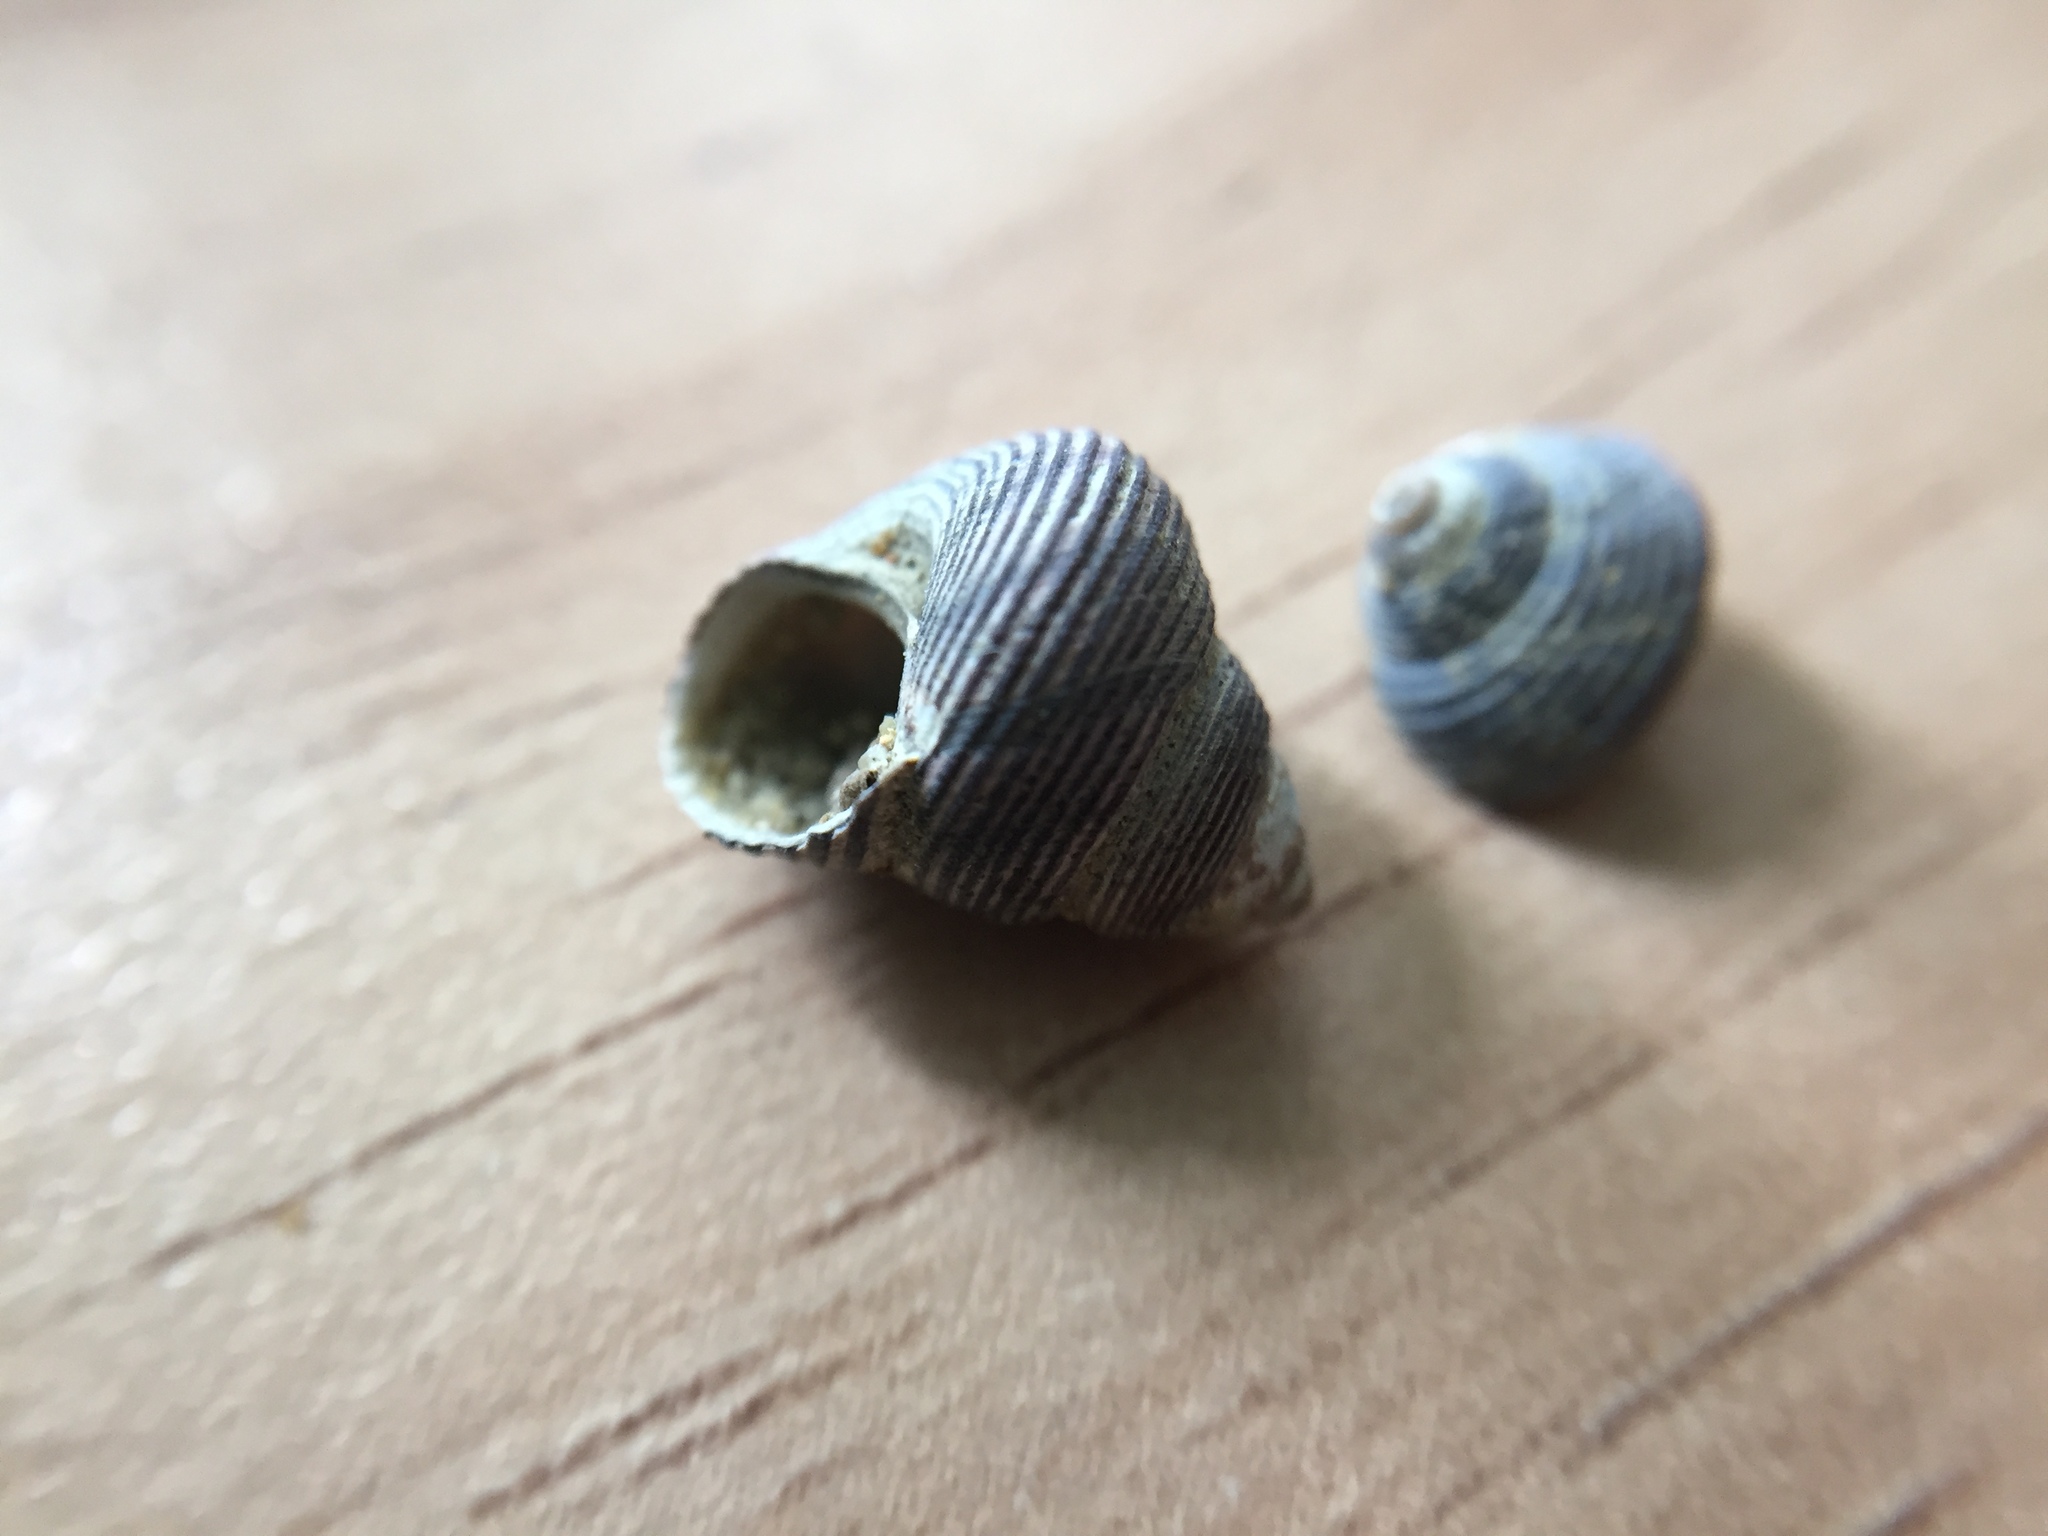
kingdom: Animalia
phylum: Mollusca
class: Gastropoda
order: Trochida
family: Trochidae
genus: Micrelenchus
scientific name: Micrelenchus huttonii
